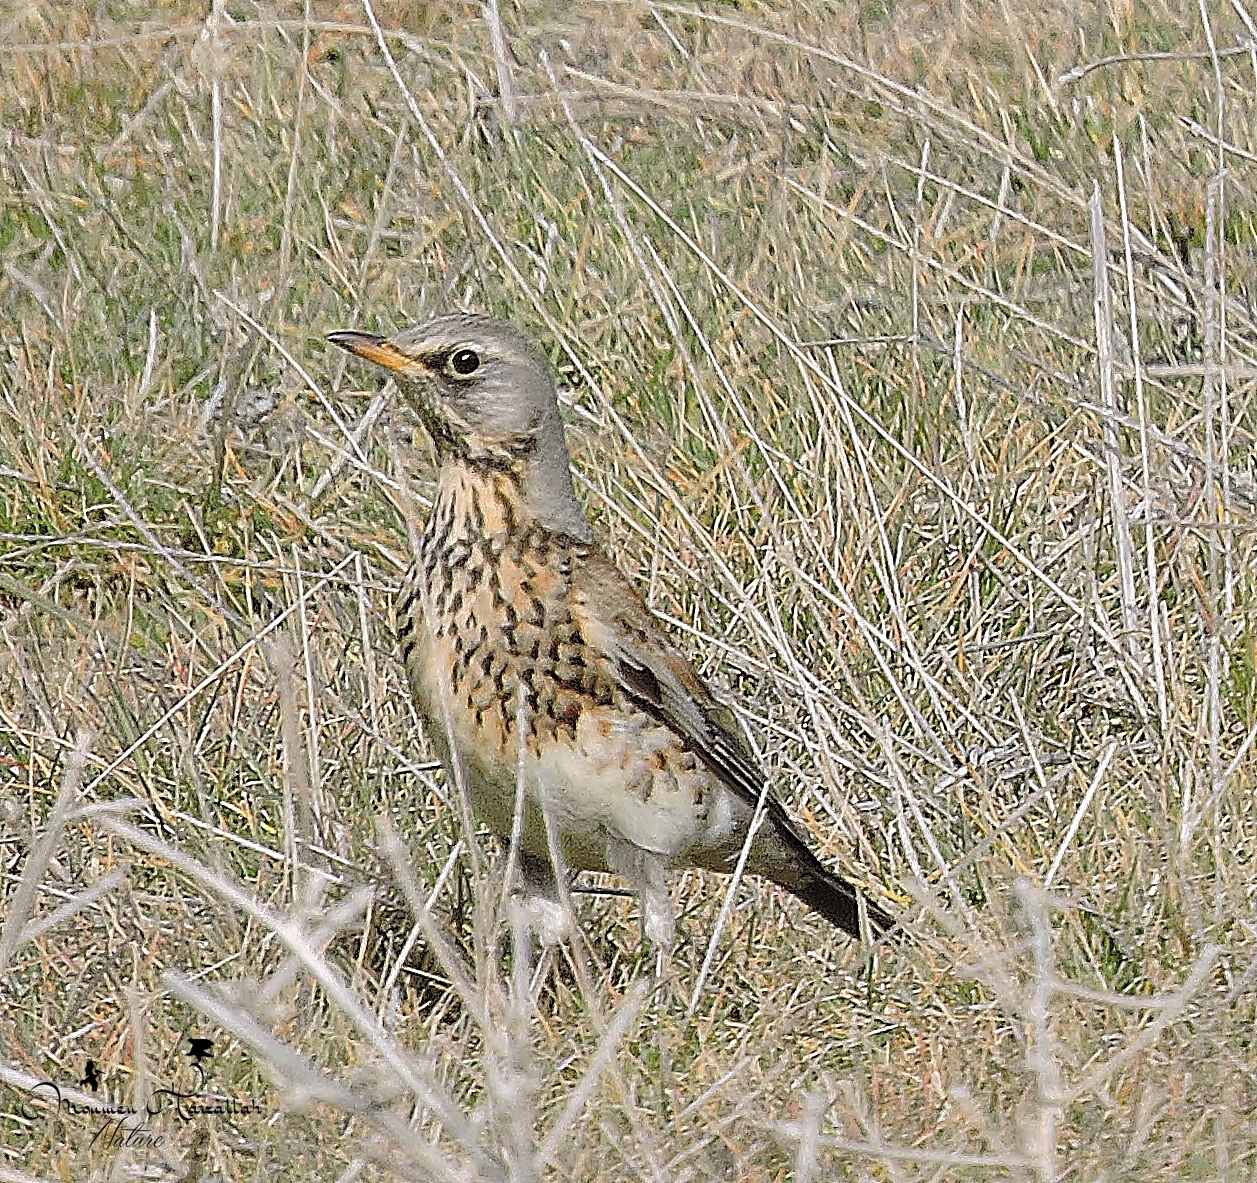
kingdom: Animalia
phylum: Chordata
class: Aves
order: Passeriformes
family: Turdidae
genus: Turdus
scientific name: Turdus pilaris
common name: Fieldfare
